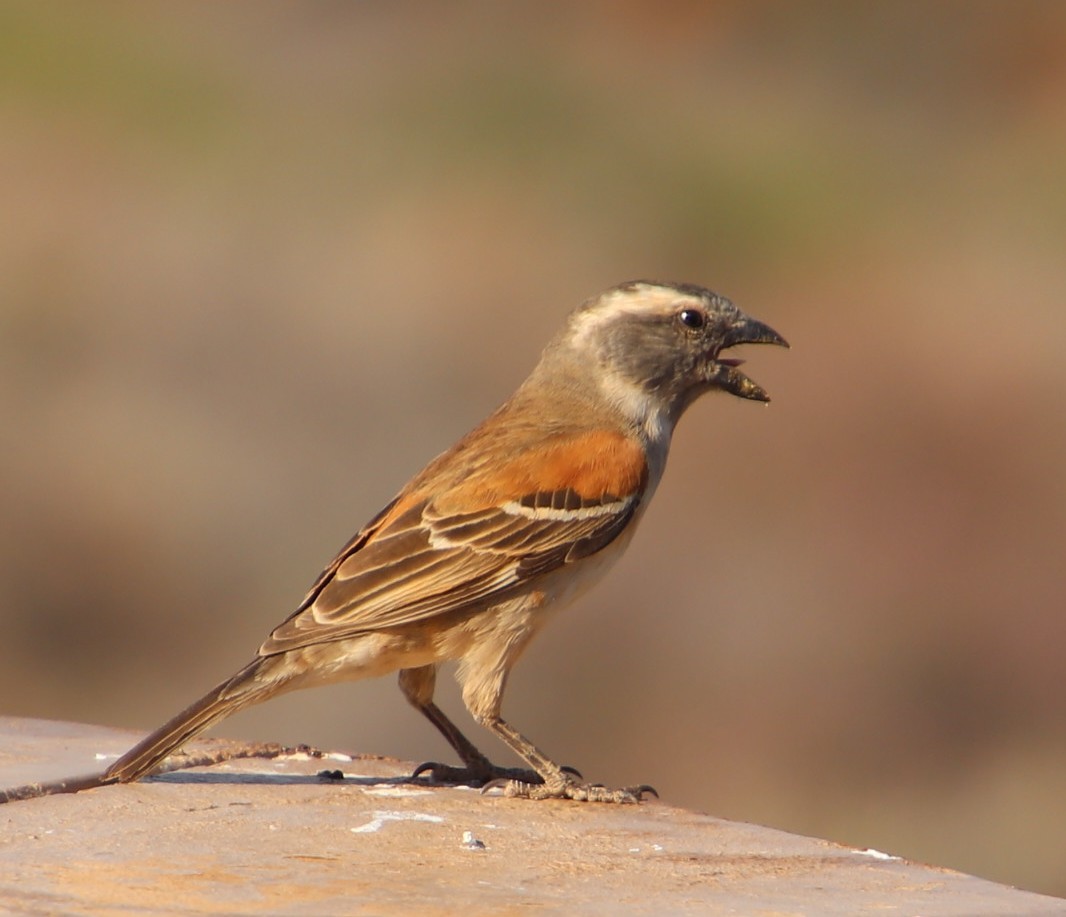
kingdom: Animalia
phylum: Chordata
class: Aves
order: Passeriformes
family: Passeridae
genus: Passer
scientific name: Passer melanurus
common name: Cape sparrow
